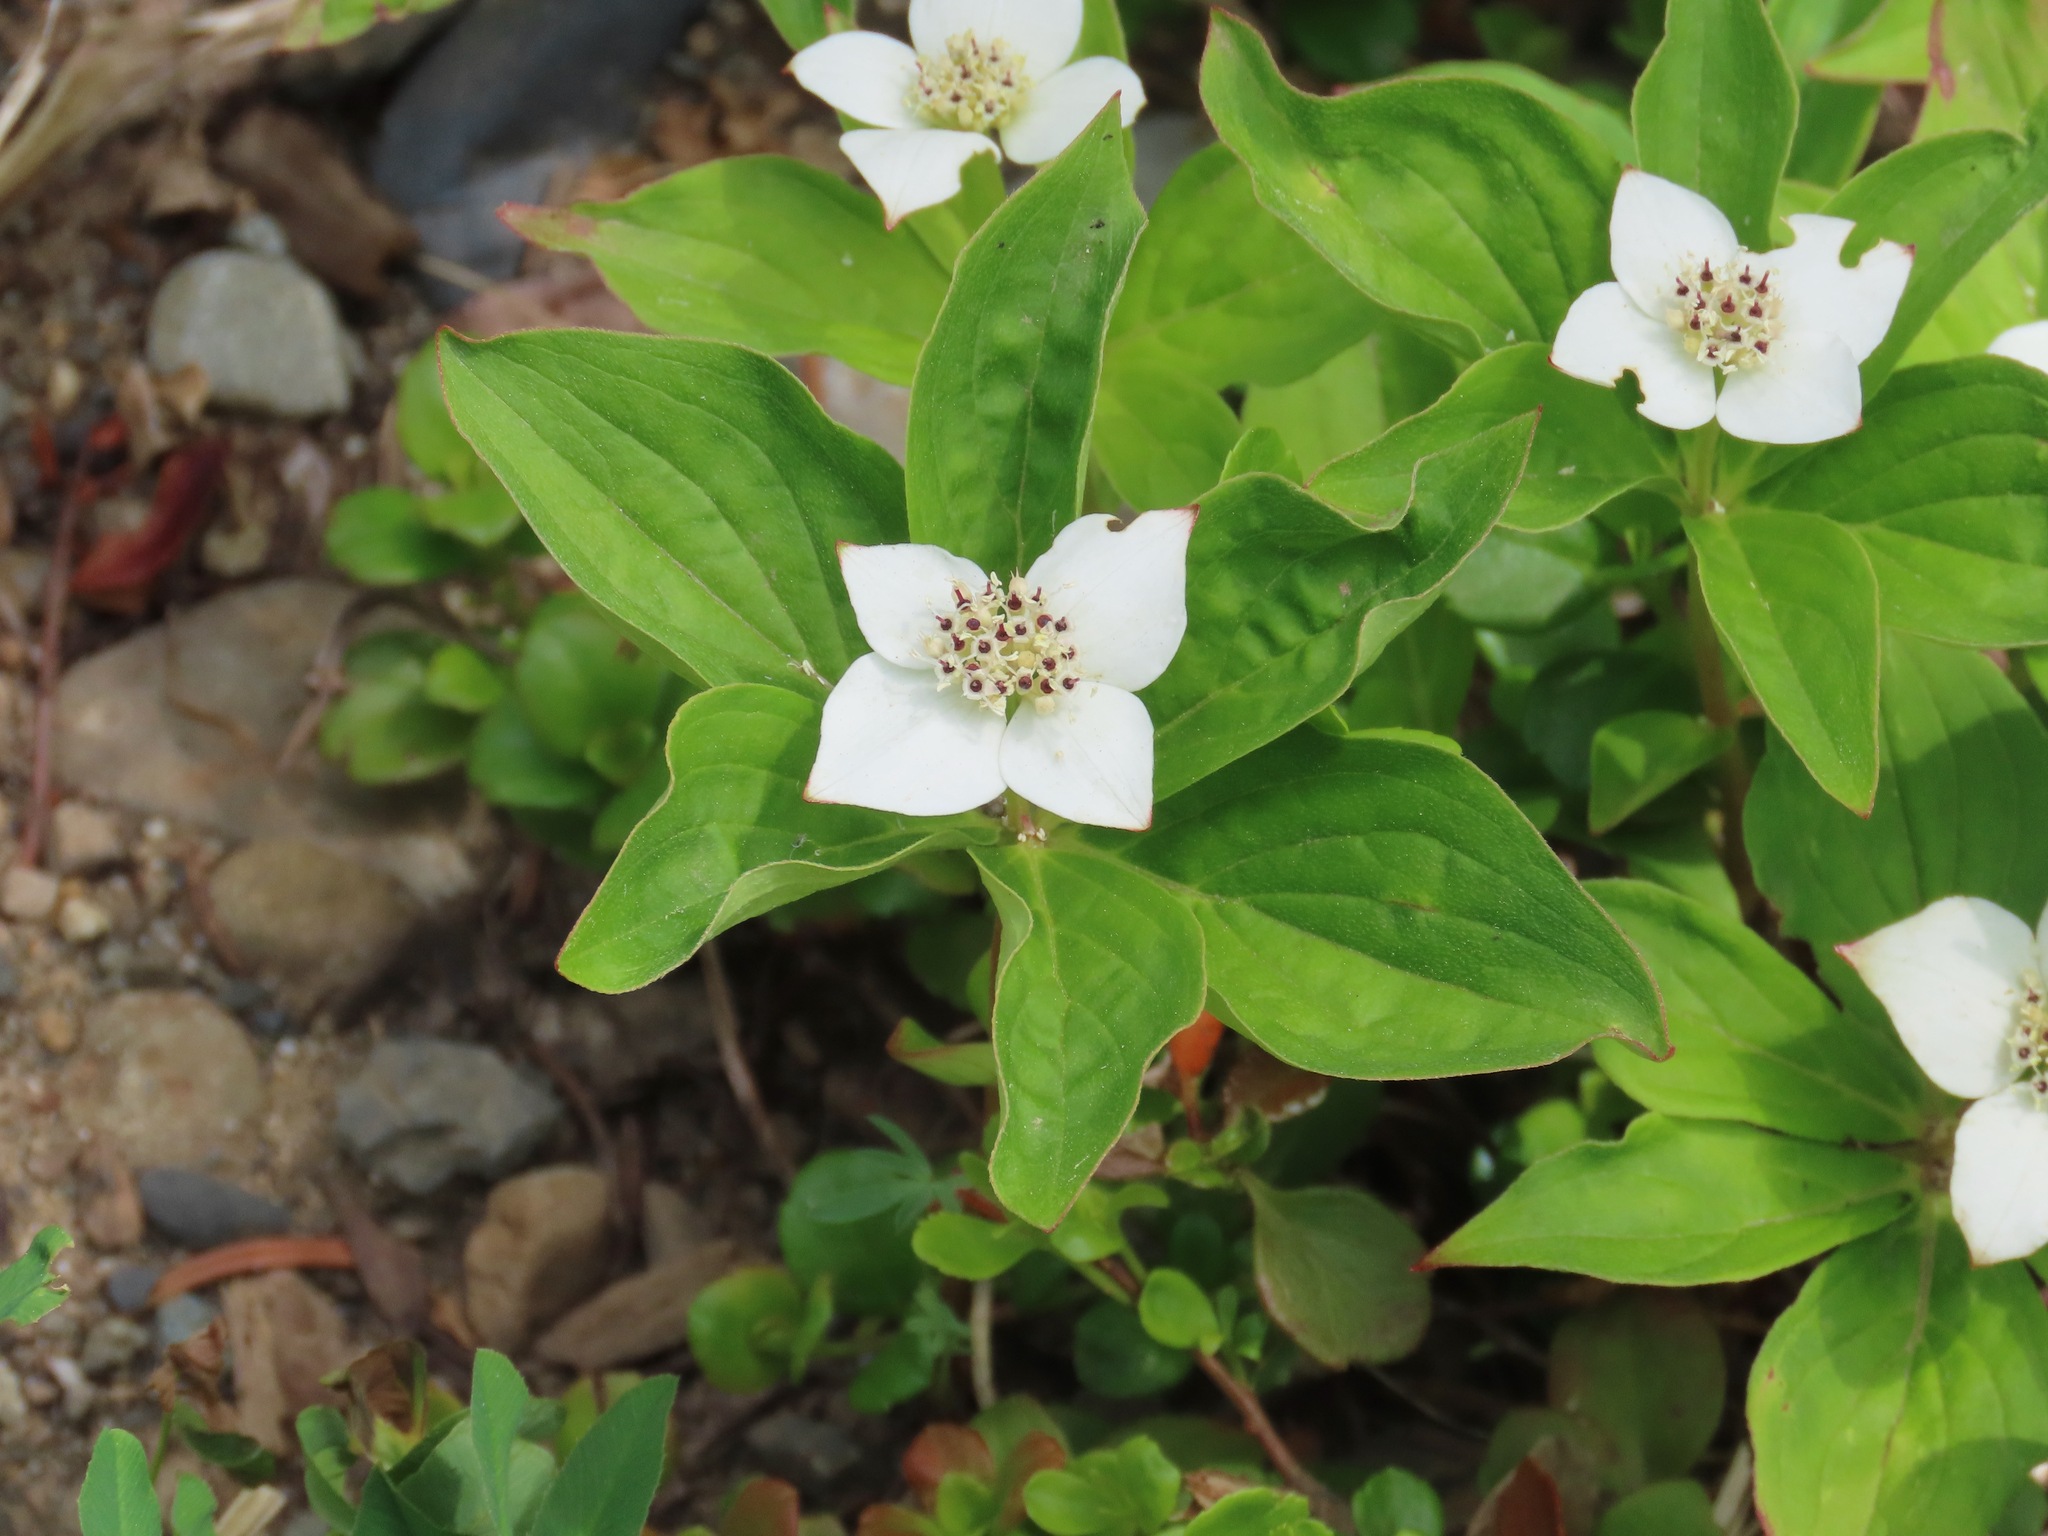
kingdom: Plantae
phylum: Tracheophyta
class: Magnoliopsida
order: Cornales
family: Cornaceae
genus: Cornus
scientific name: Cornus canadensis
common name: Creeping dogwood
